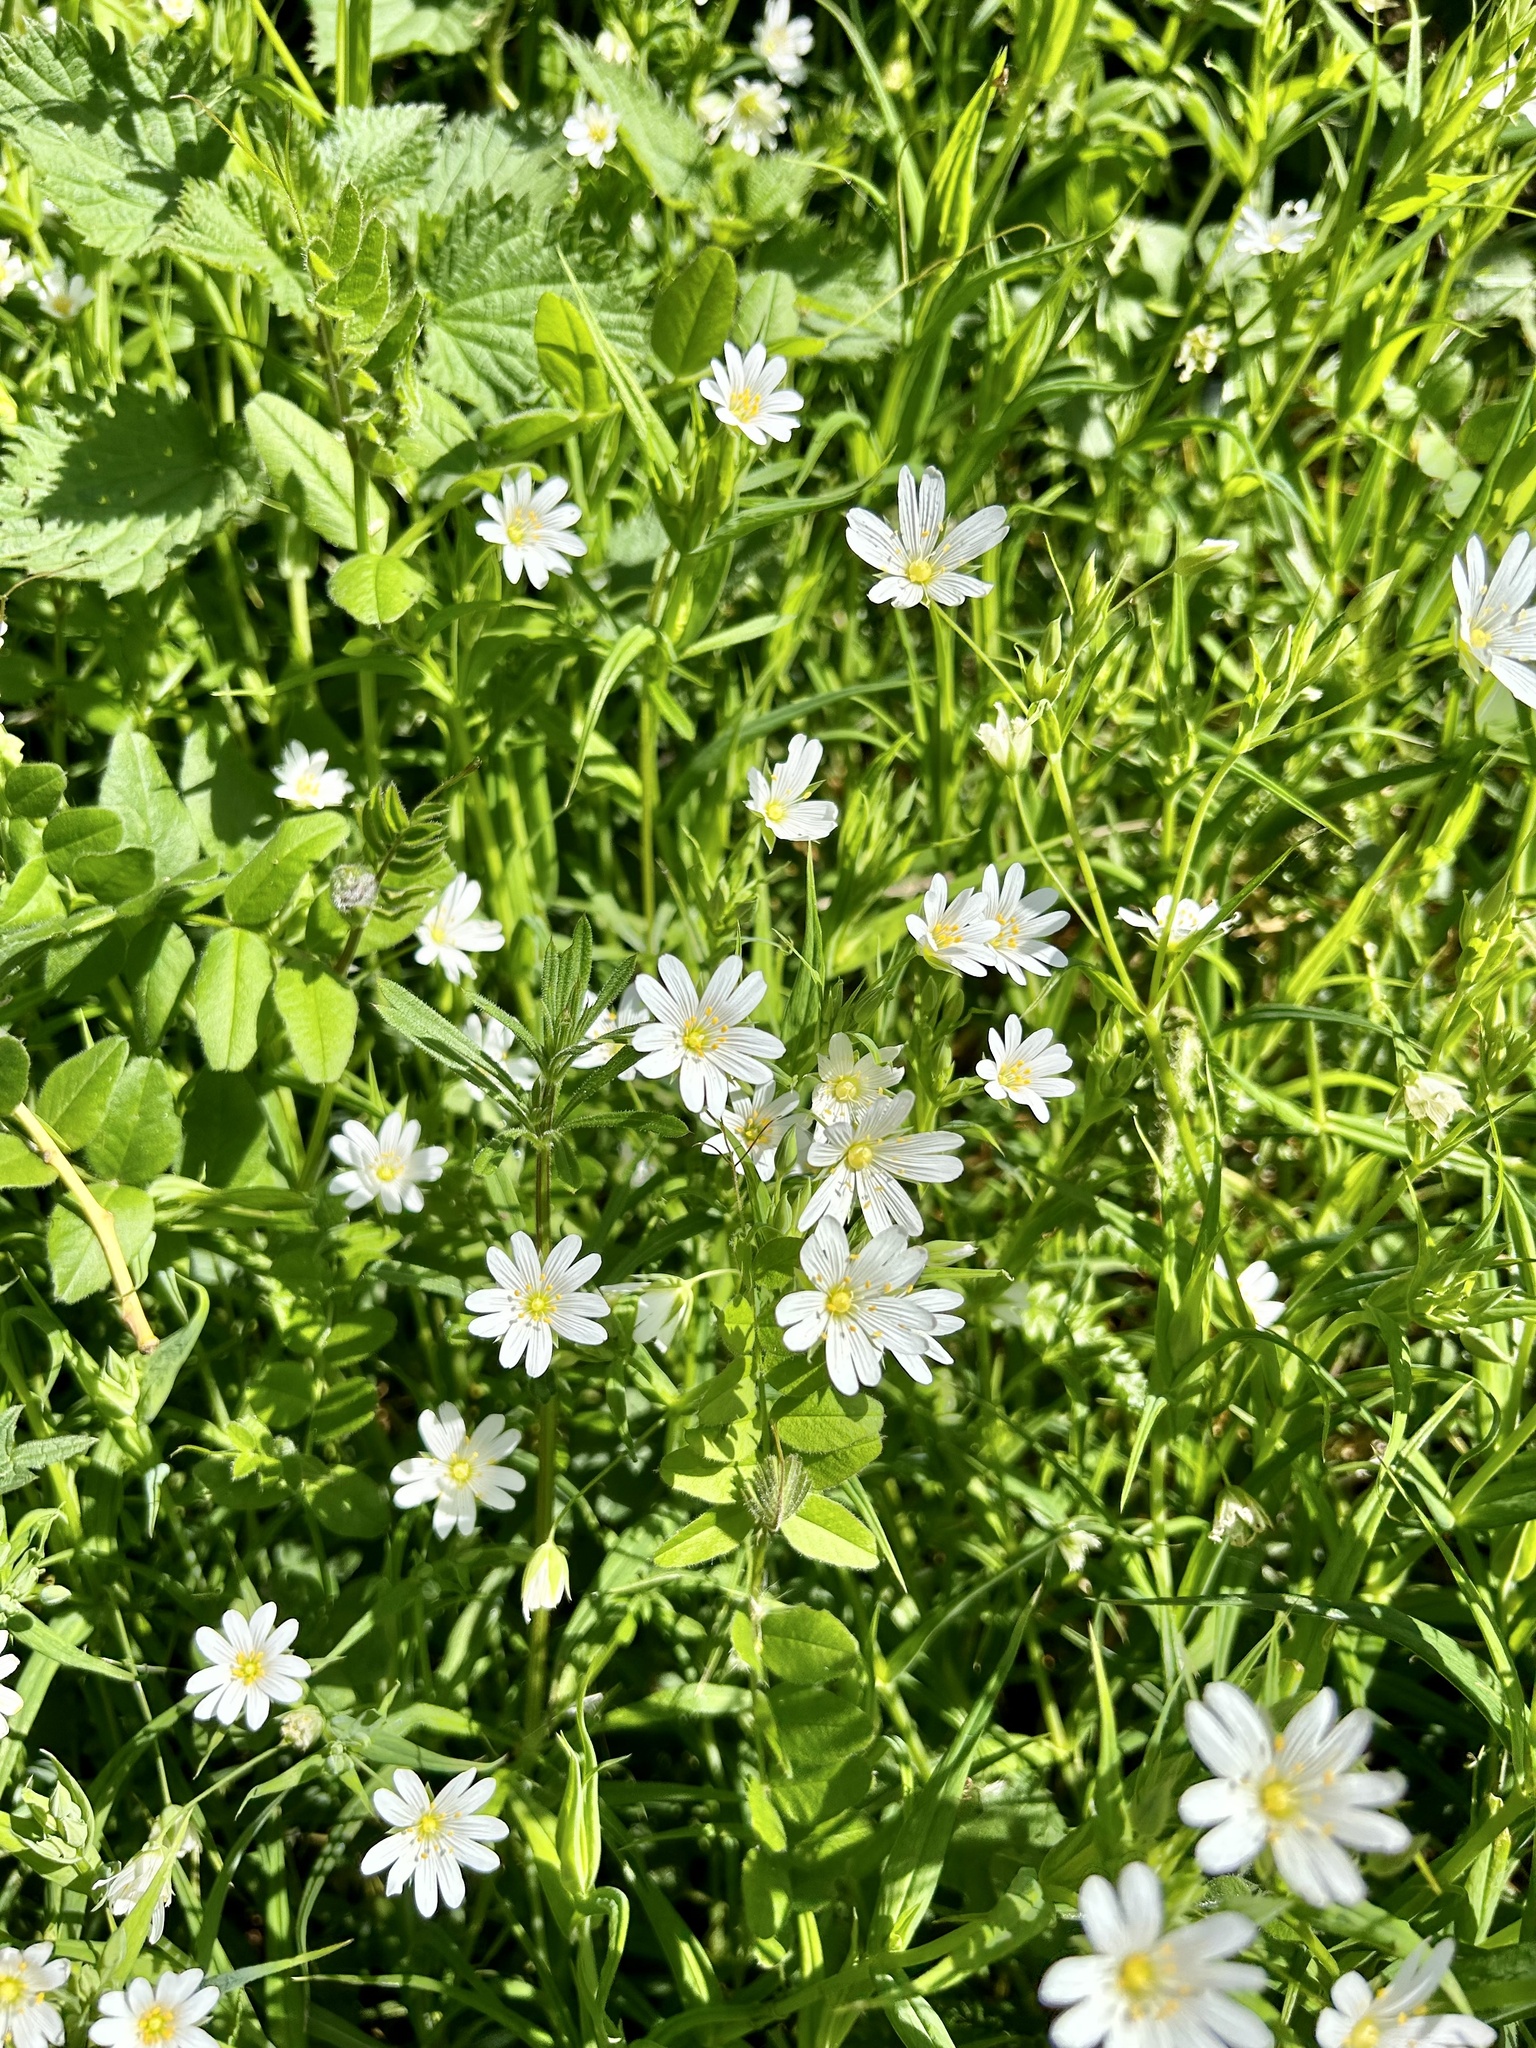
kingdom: Plantae
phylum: Tracheophyta
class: Magnoliopsida
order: Caryophyllales
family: Caryophyllaceae
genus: Rabelera
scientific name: Rabelera holostea
